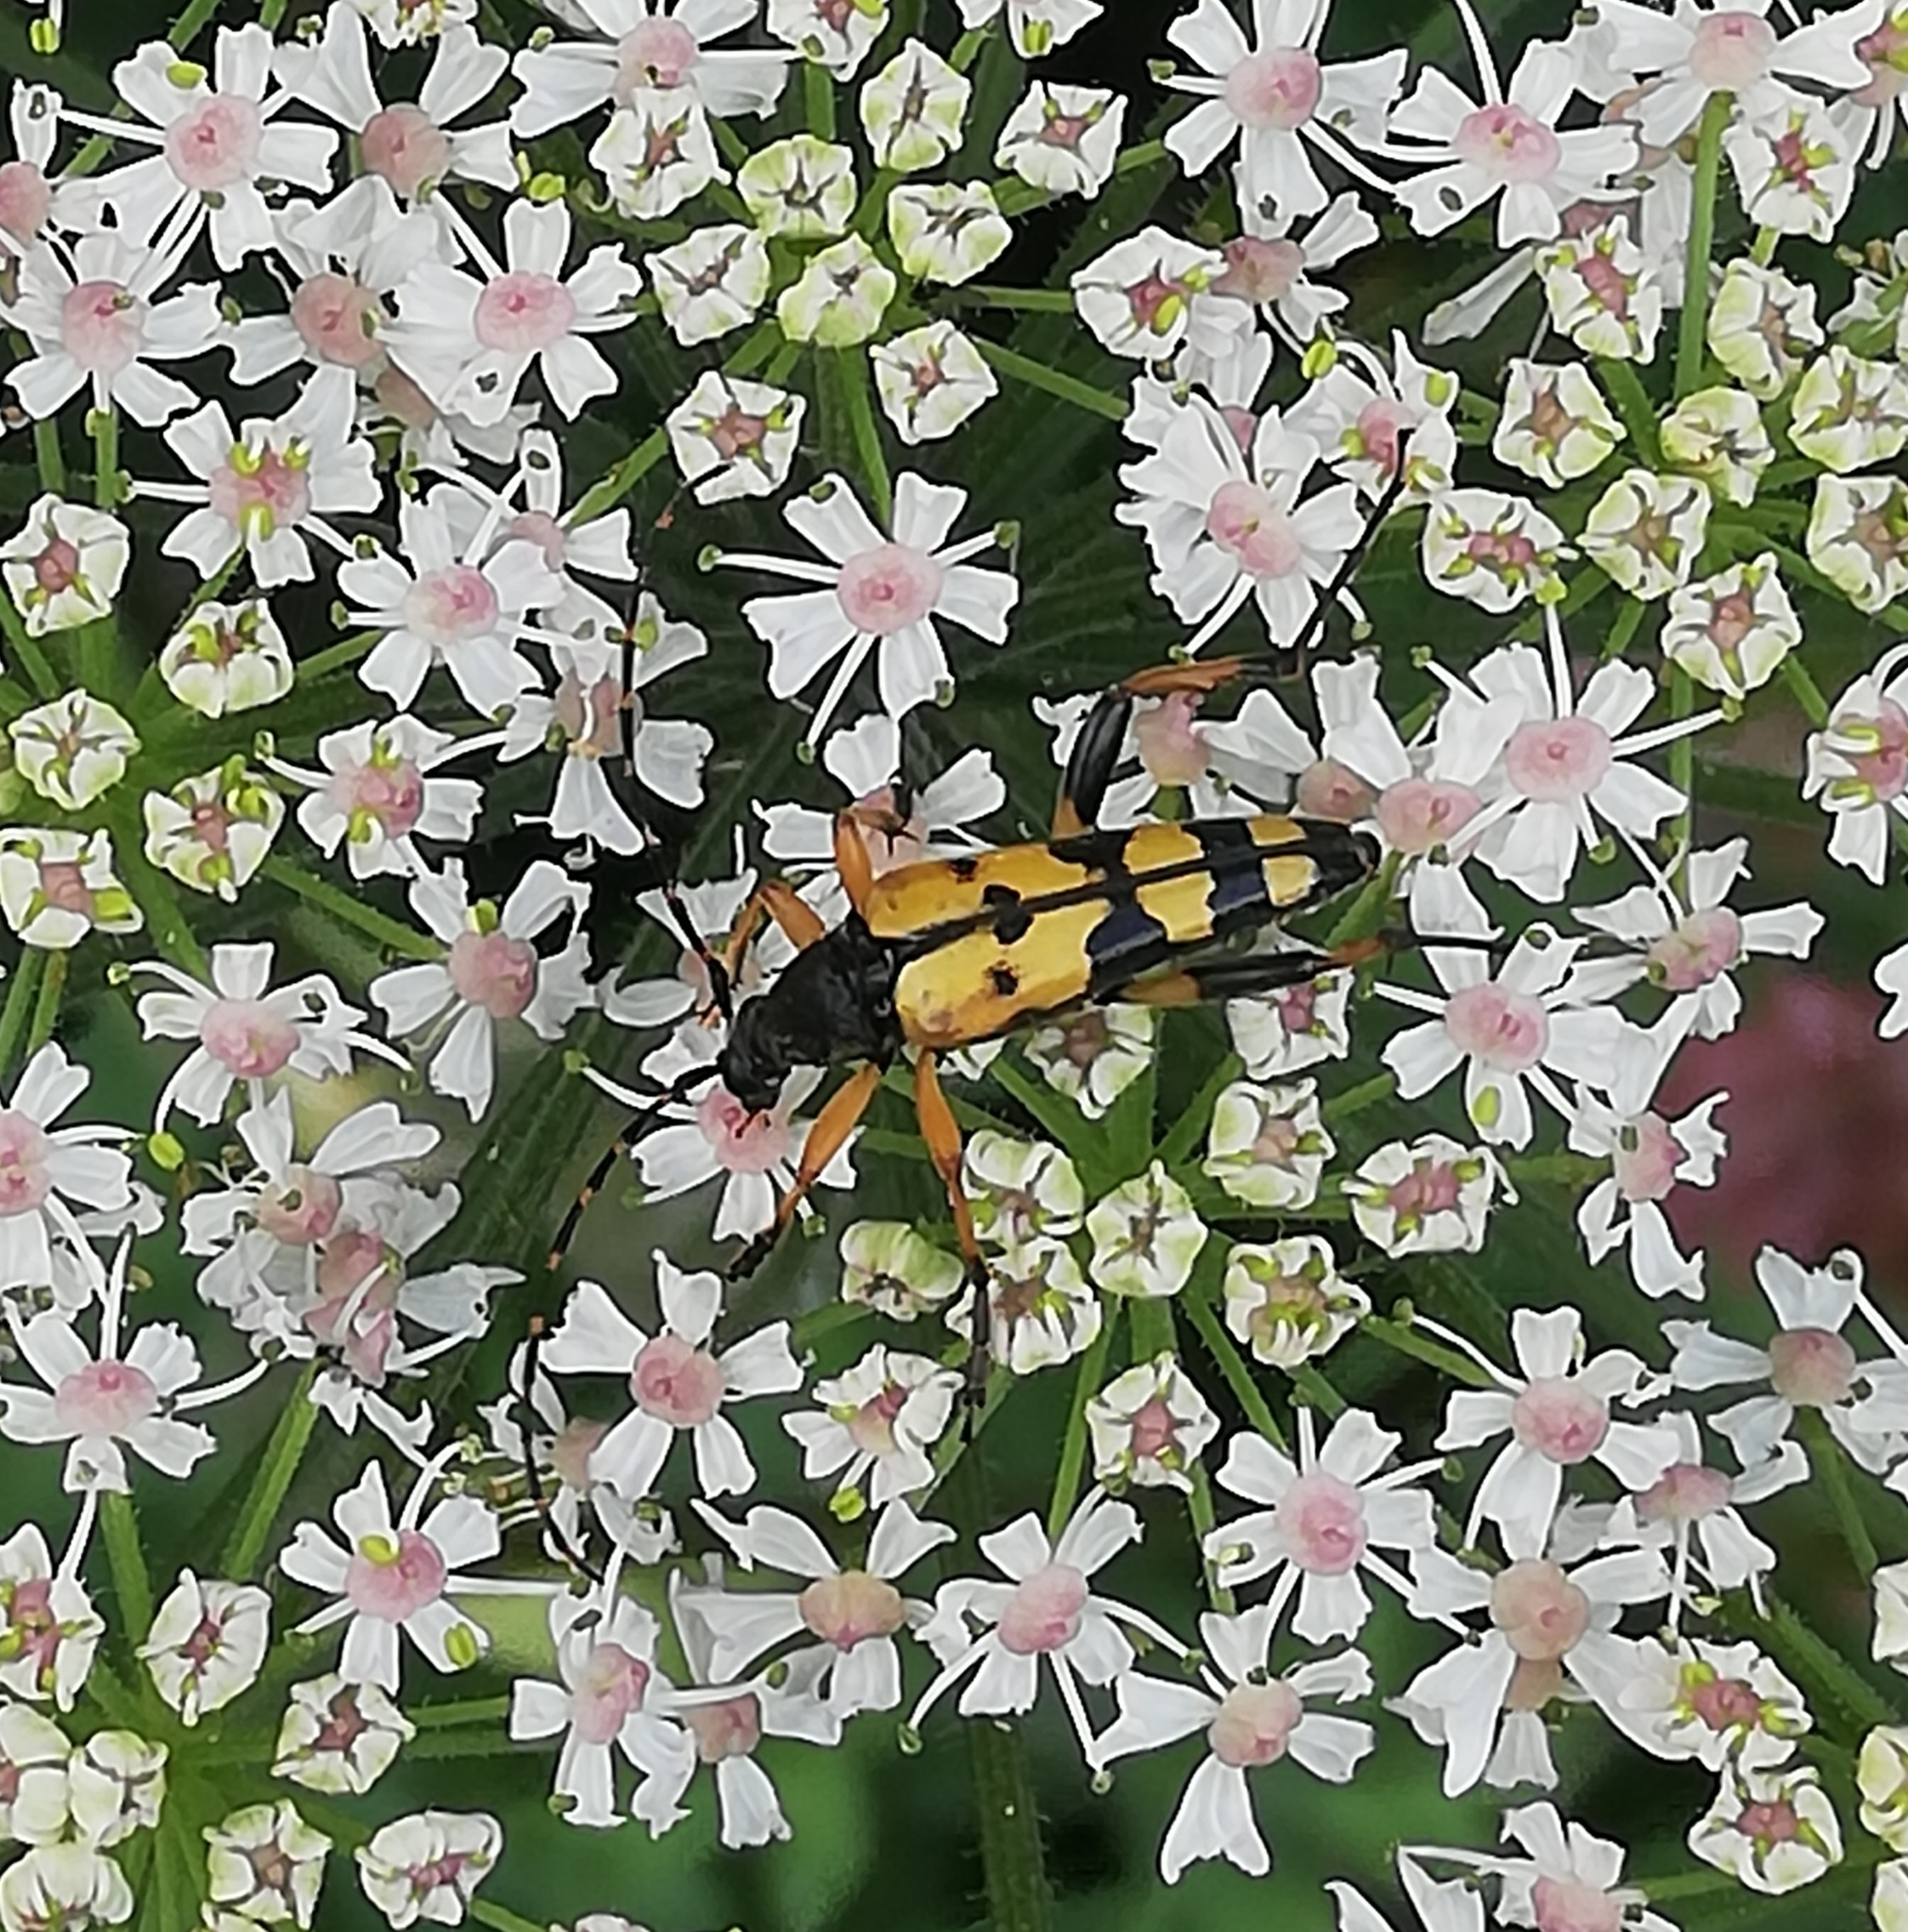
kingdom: Animalia
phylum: Arthropoda
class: Insecta
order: Coleoptera
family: Cerambycidae
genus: Rutpela
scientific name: Rutpela maculata
